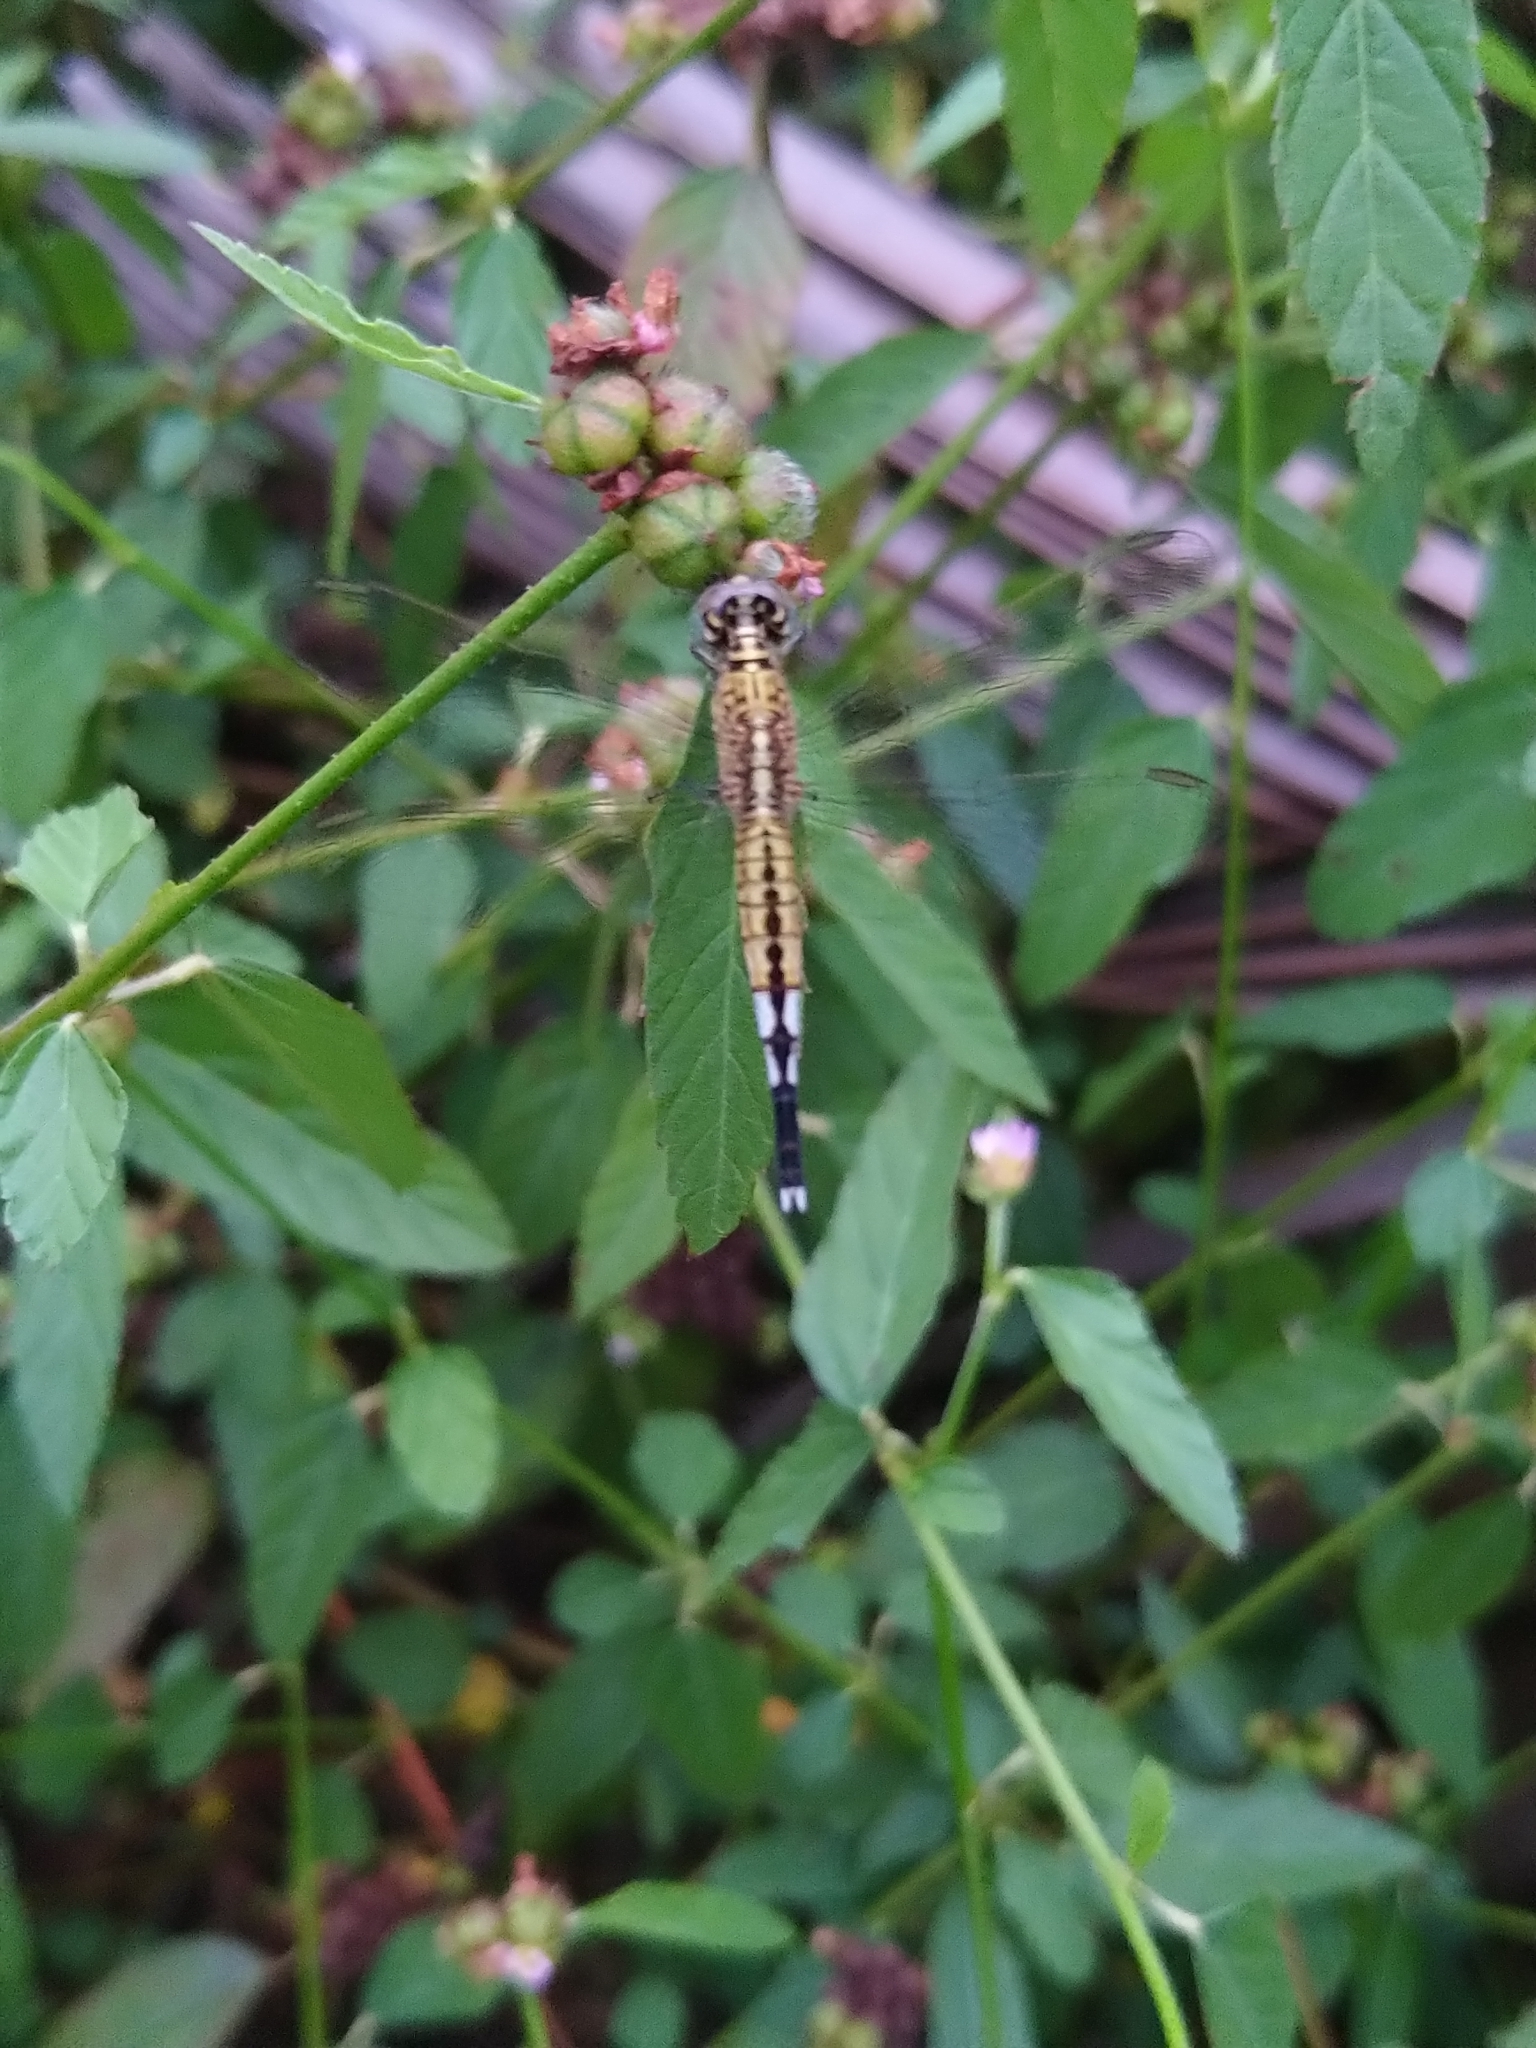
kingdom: Animalia
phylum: Arthropoda
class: Insecta
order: Odonata
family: Libellulidae
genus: Acisoma
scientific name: Acisoma panorpoides
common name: Asian pintail
